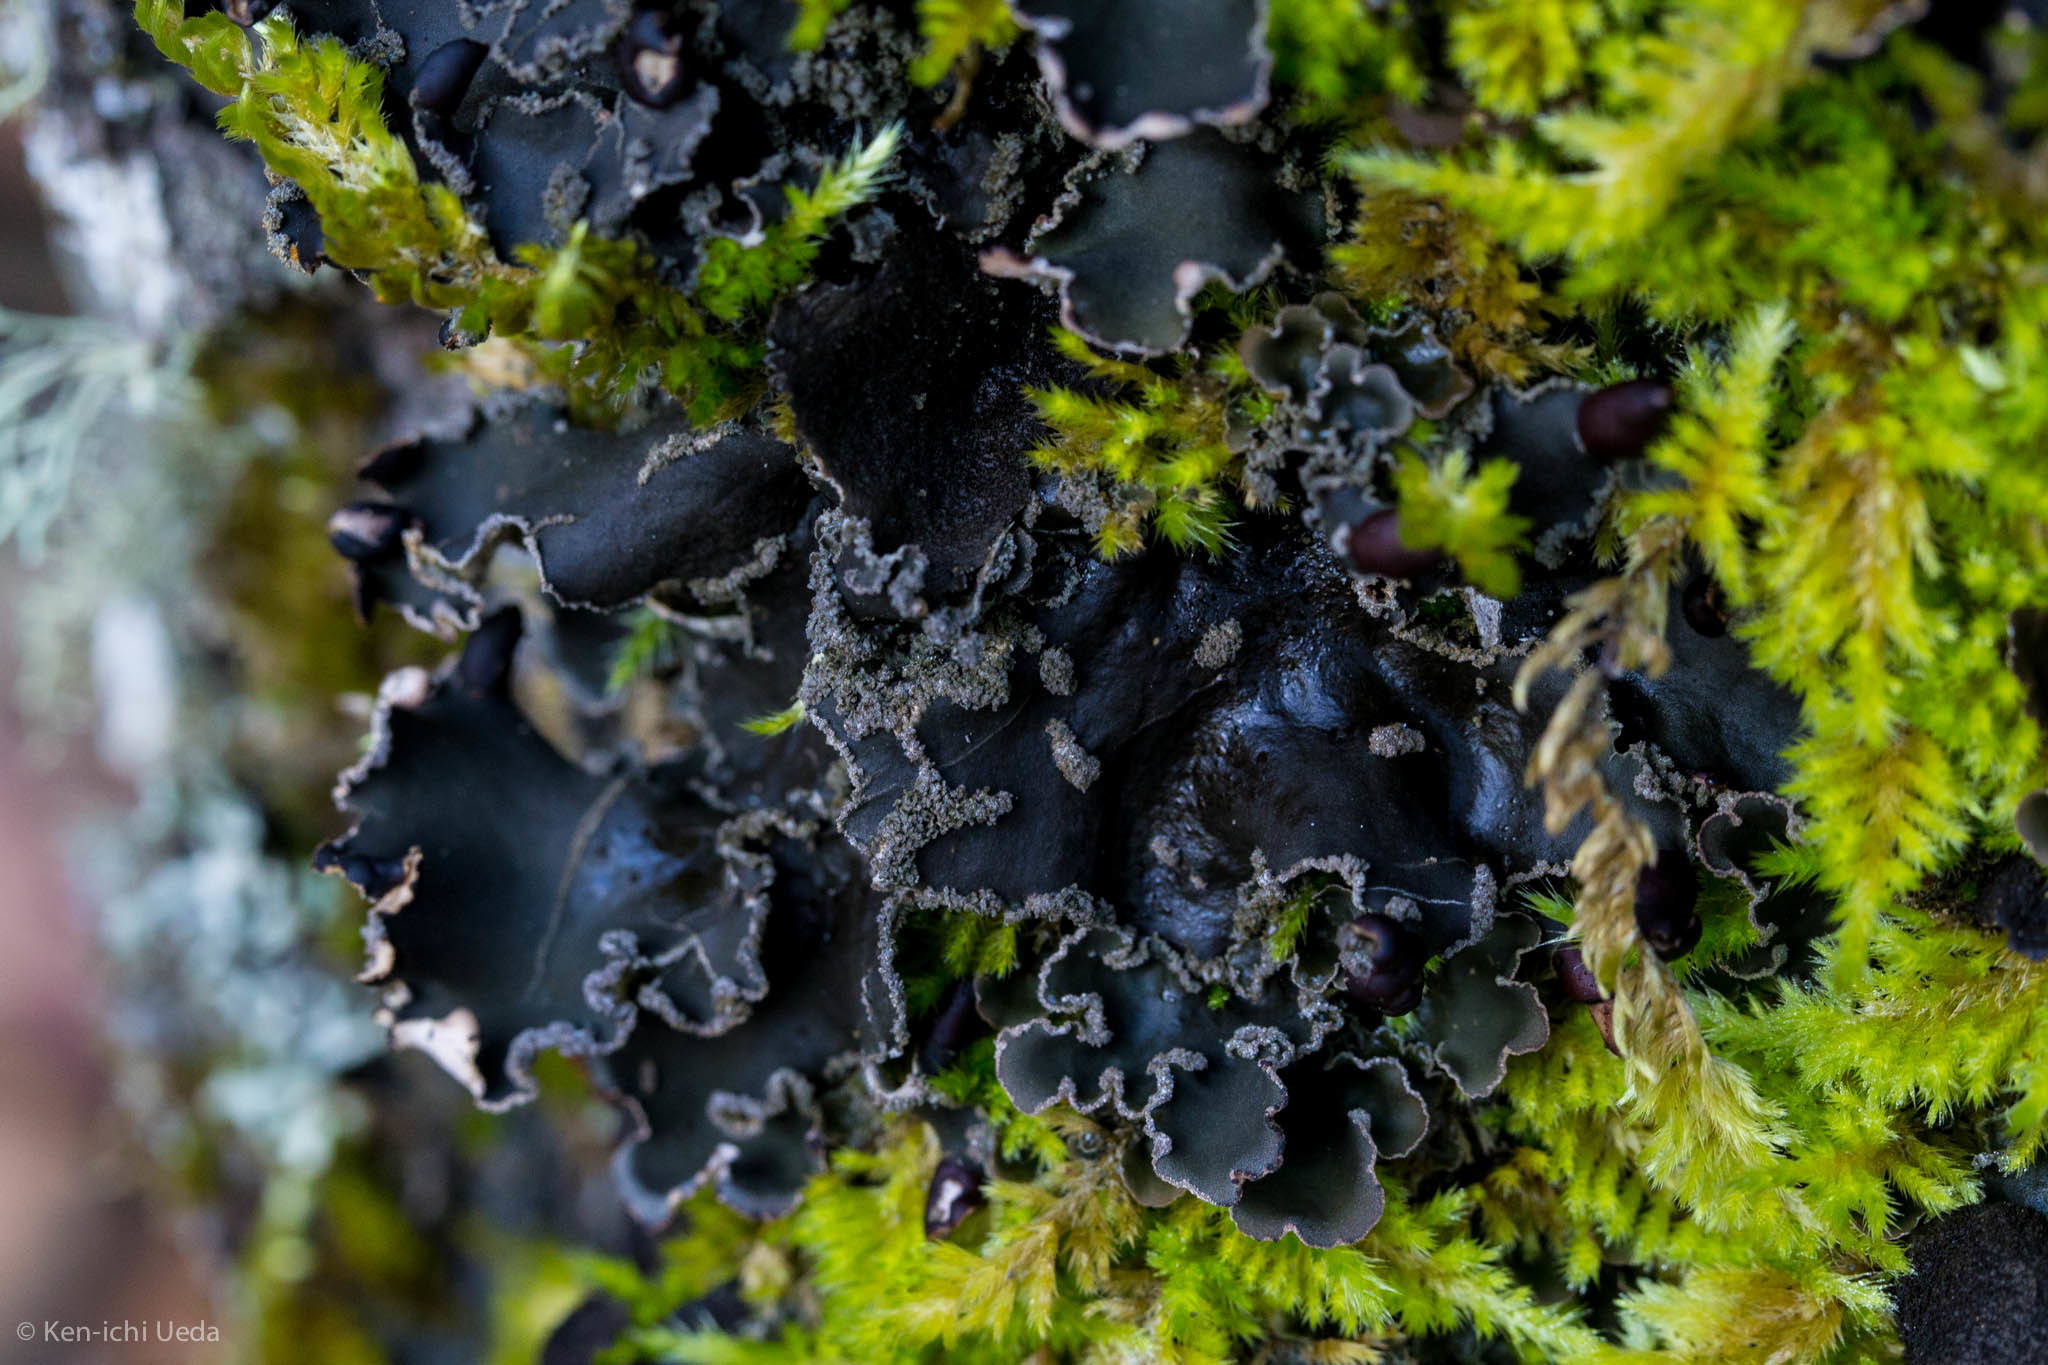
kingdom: Fungi
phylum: Ascomycota
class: Lecanoromycetes
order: Peltigerales
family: Peltigeraceae
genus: Peltigera
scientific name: Peltigera collina
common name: Gritty tree pelt lichen
